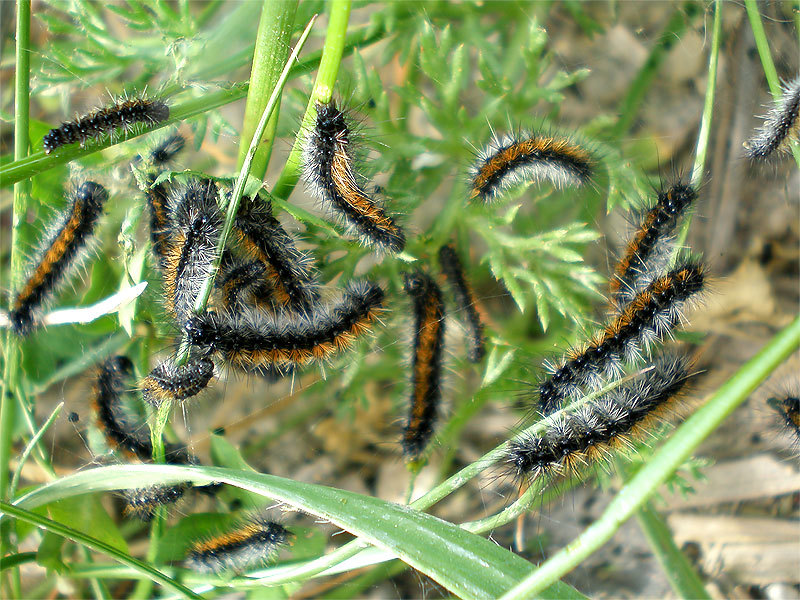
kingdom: Animalia
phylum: Arthropoda
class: Insecta
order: Lepidoptera
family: Erebidae
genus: Ocnogyna
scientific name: Ocnogyna boeticum
